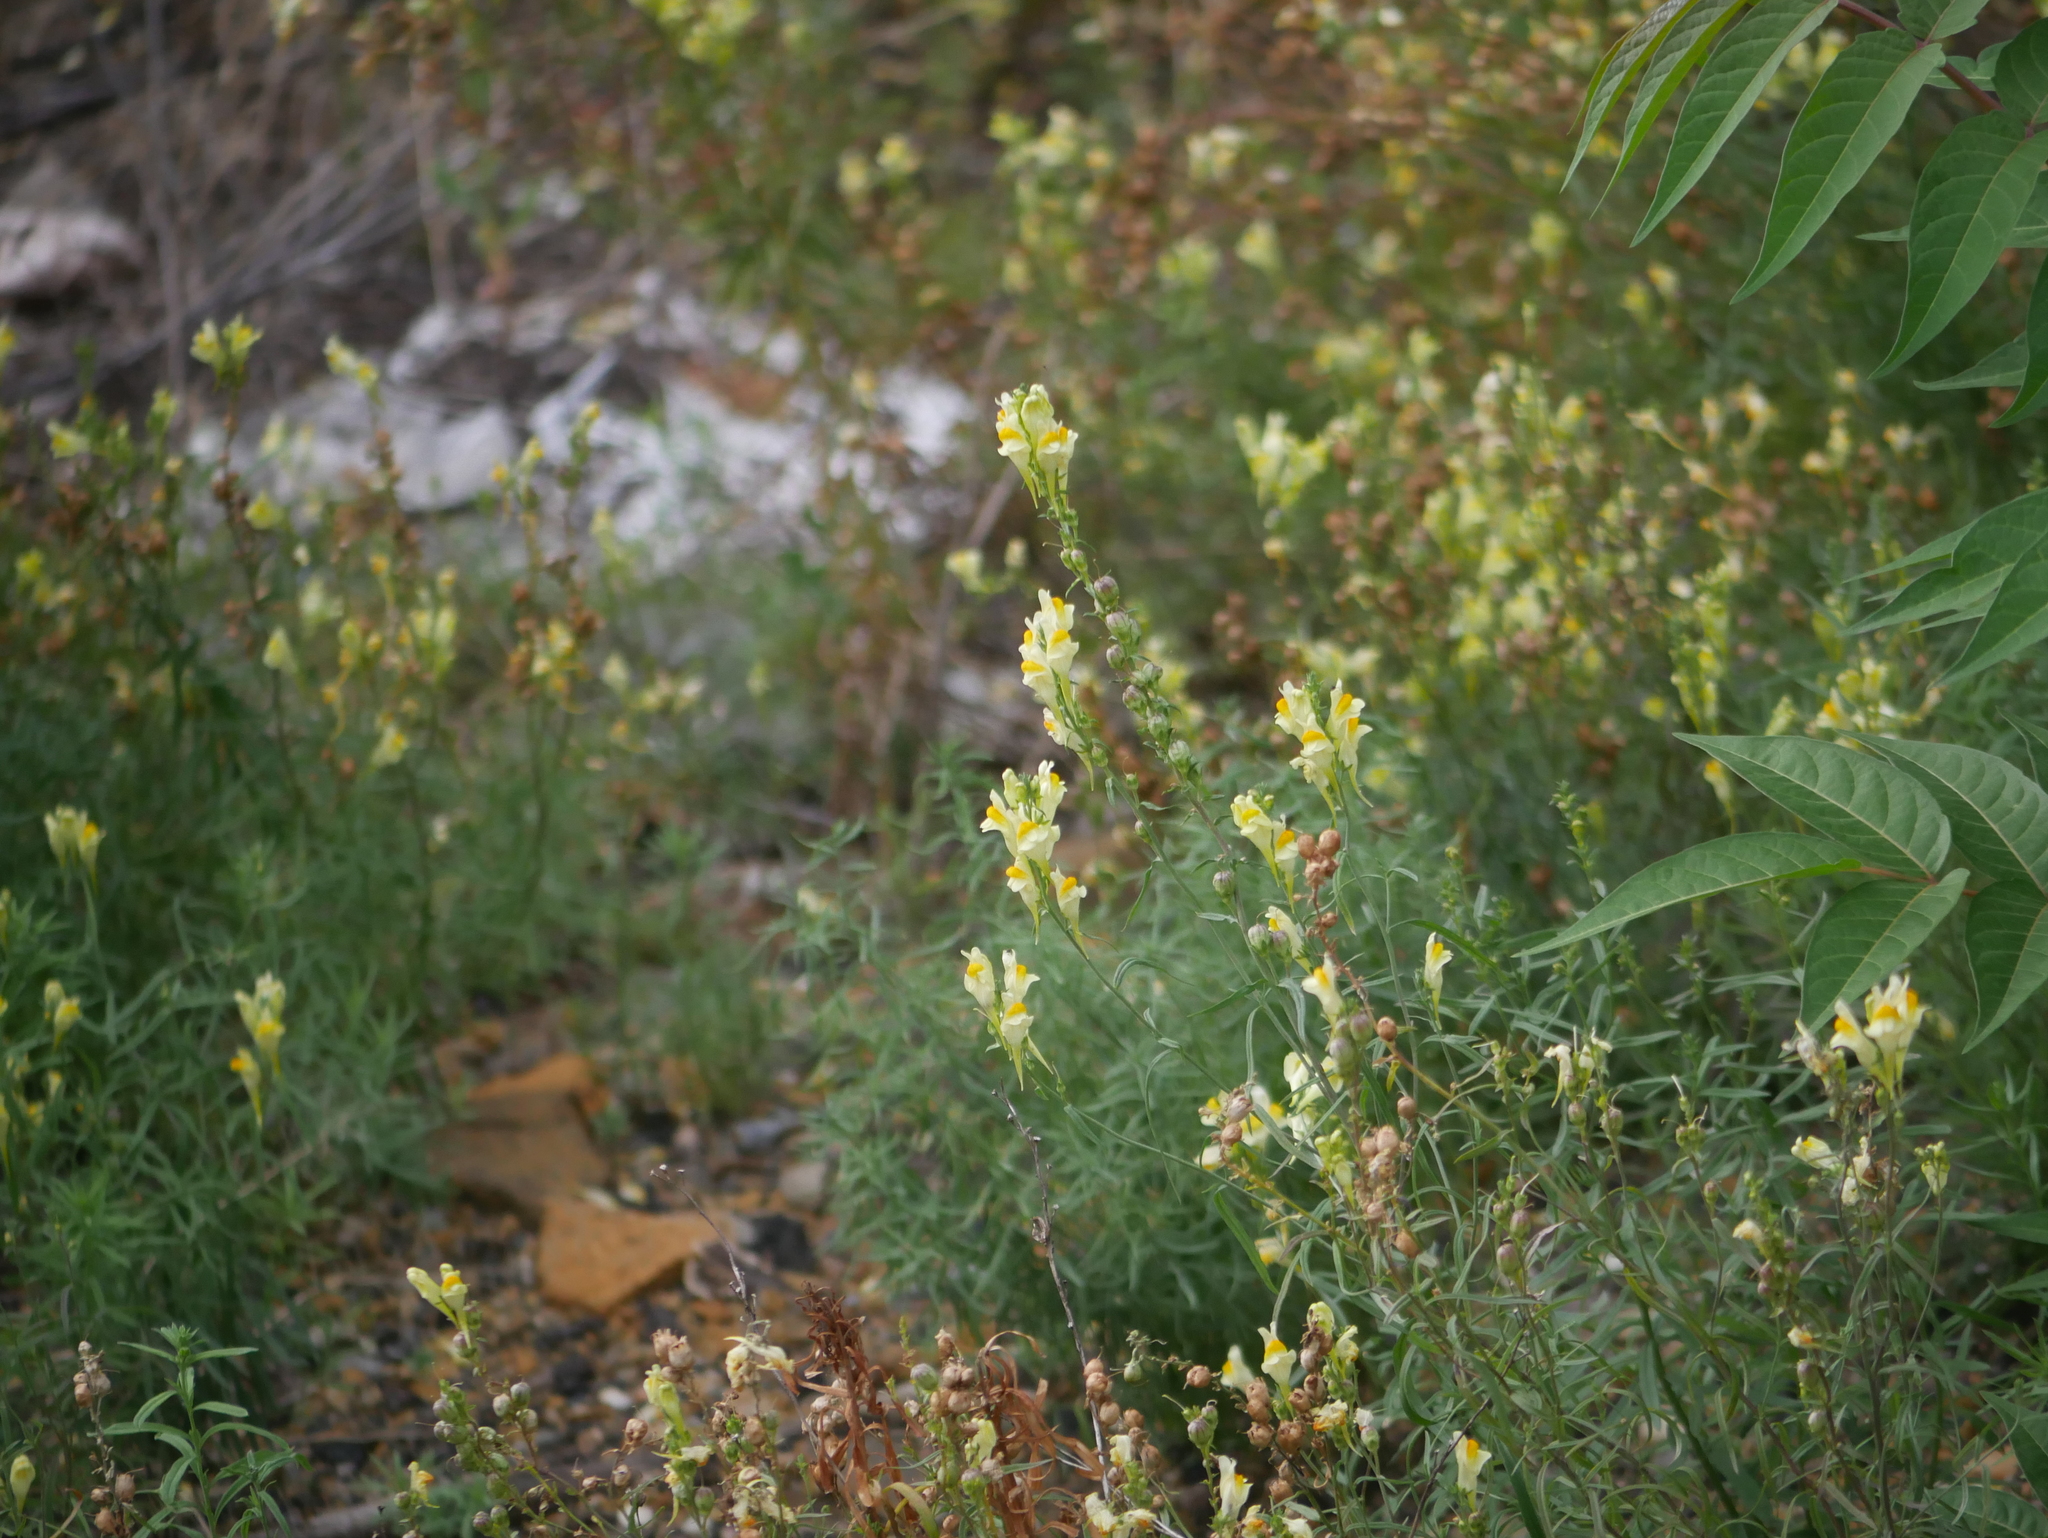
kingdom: Plantae
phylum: Tracheophyta
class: Magnoliopsida
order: Lamiales
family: Plantaginaceae
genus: Linaria
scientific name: Linaria vulgaris
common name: Butter and eggs
